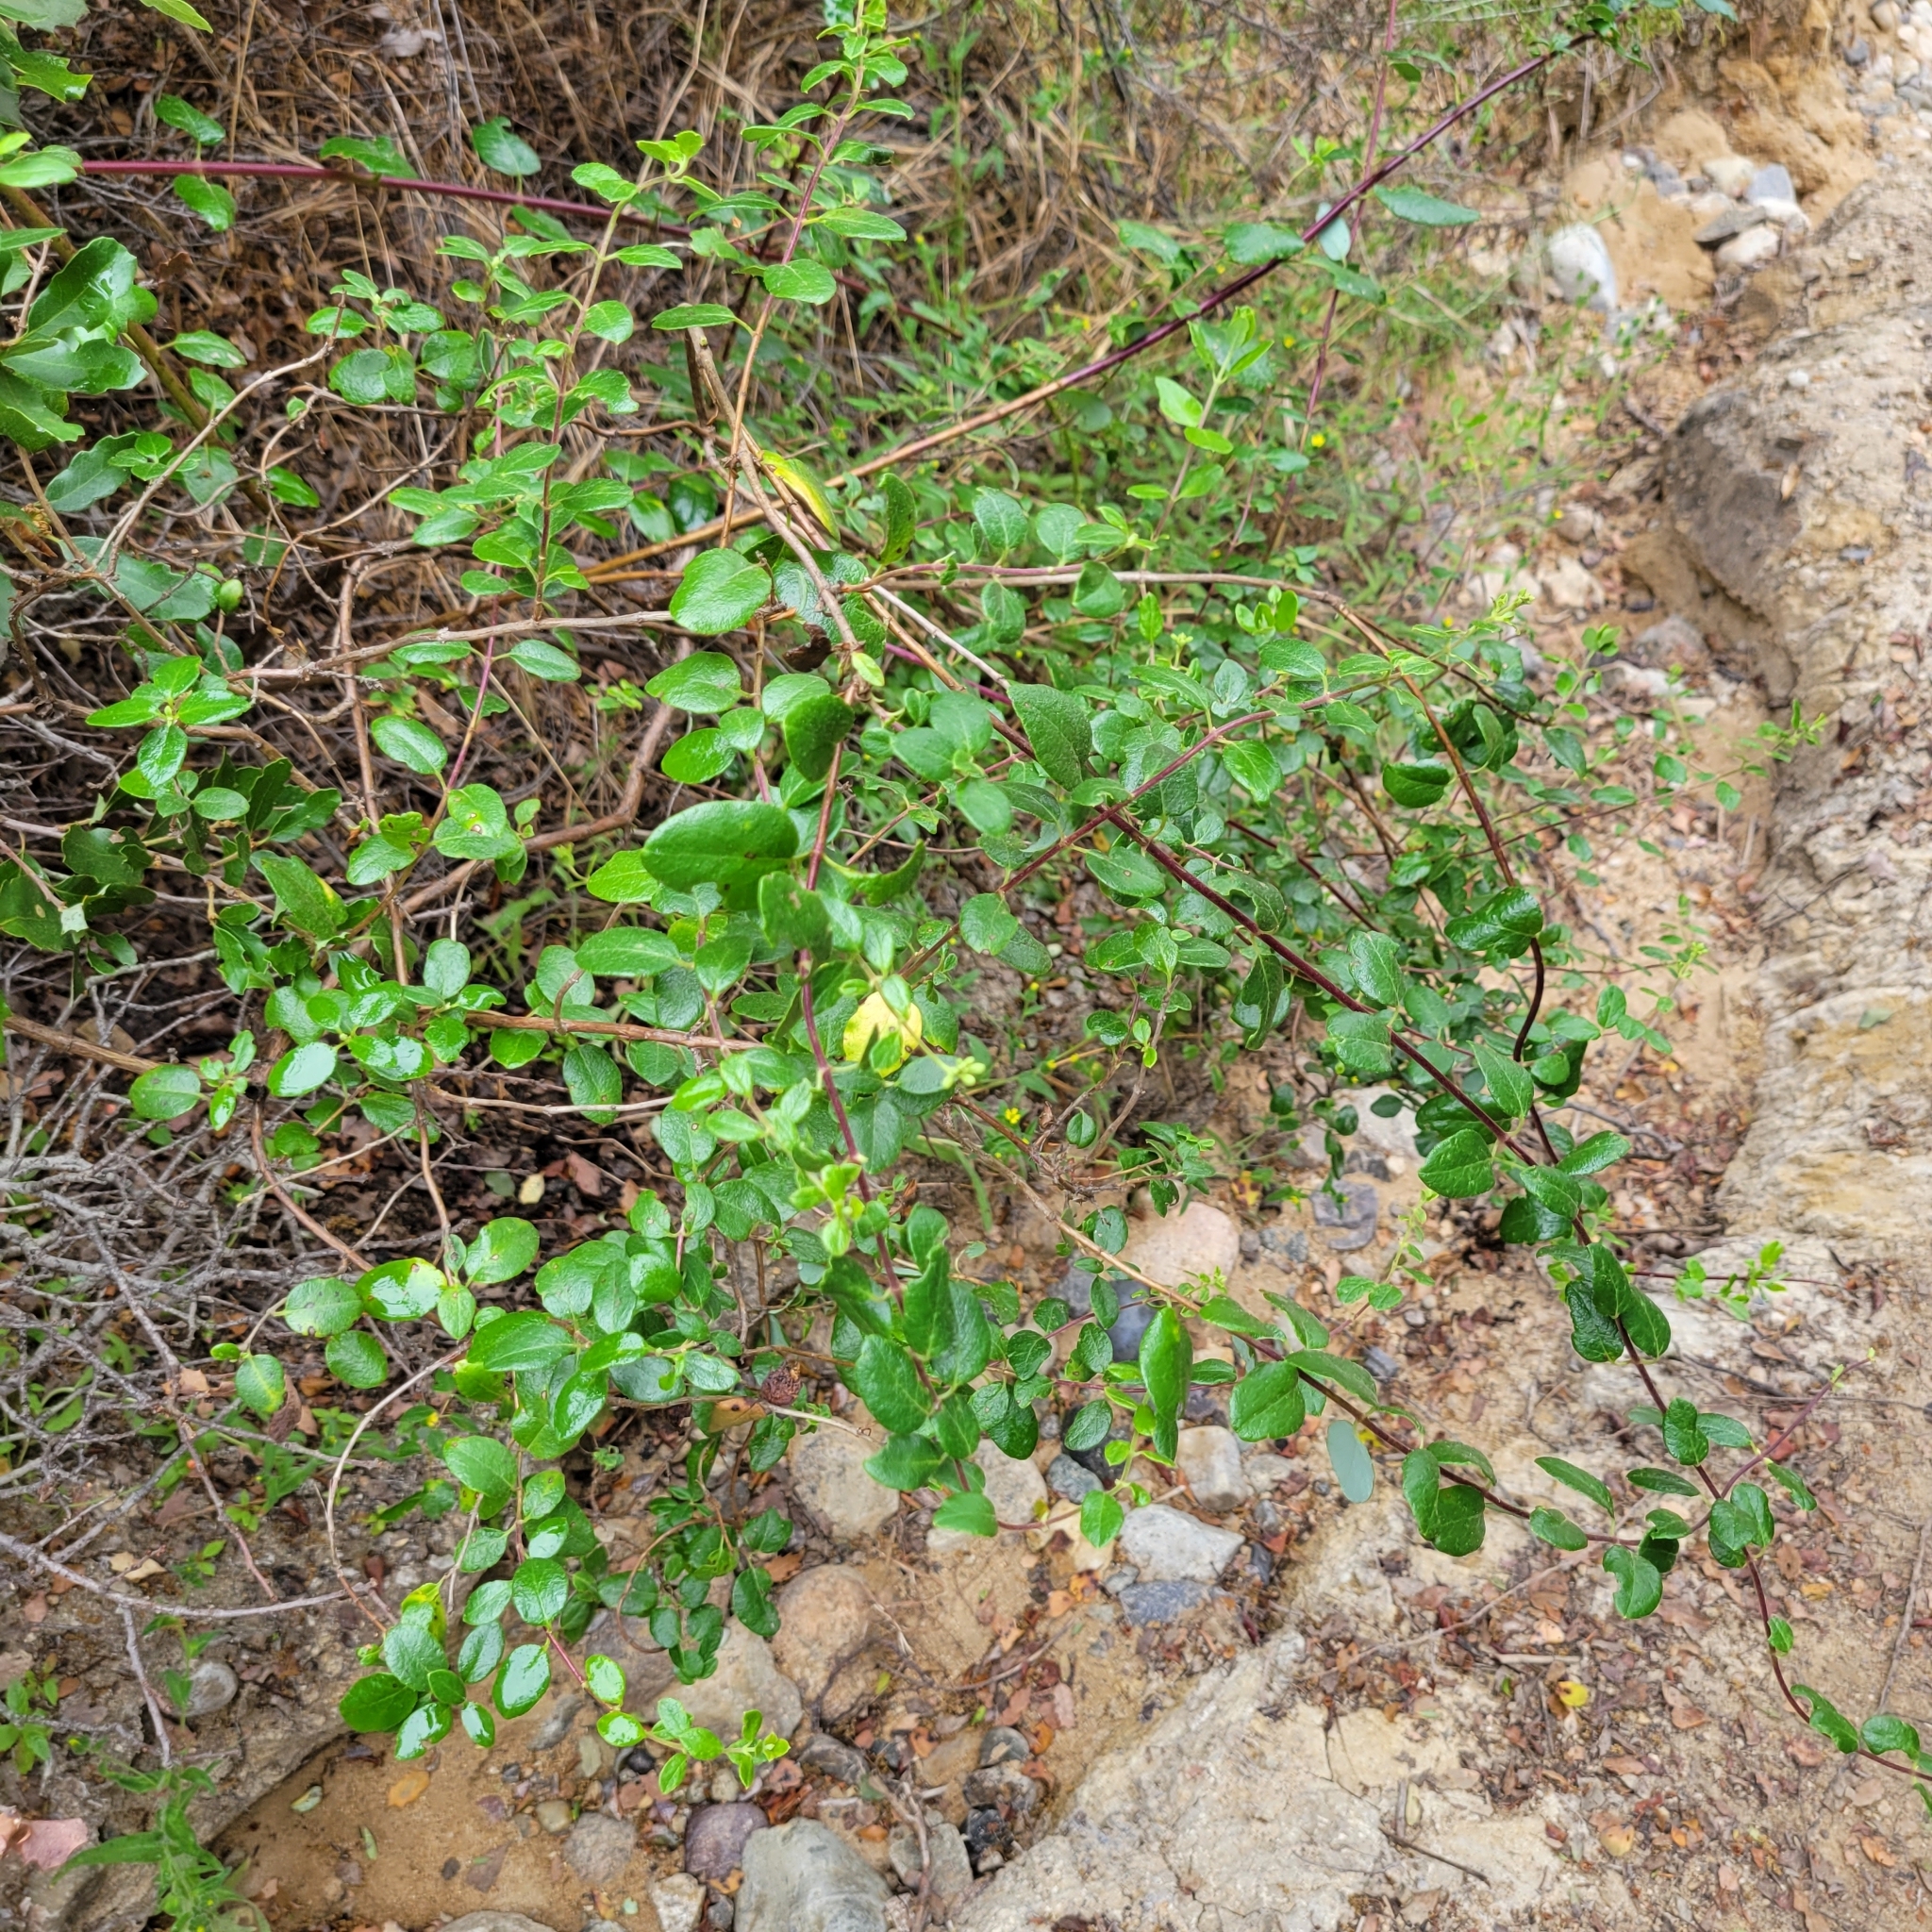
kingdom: Plantae
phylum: Tracheophyta
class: Magnoliopsida
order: Dipsacales
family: Caprifoliaceae
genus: Lonicera
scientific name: Lonicera subspicata
